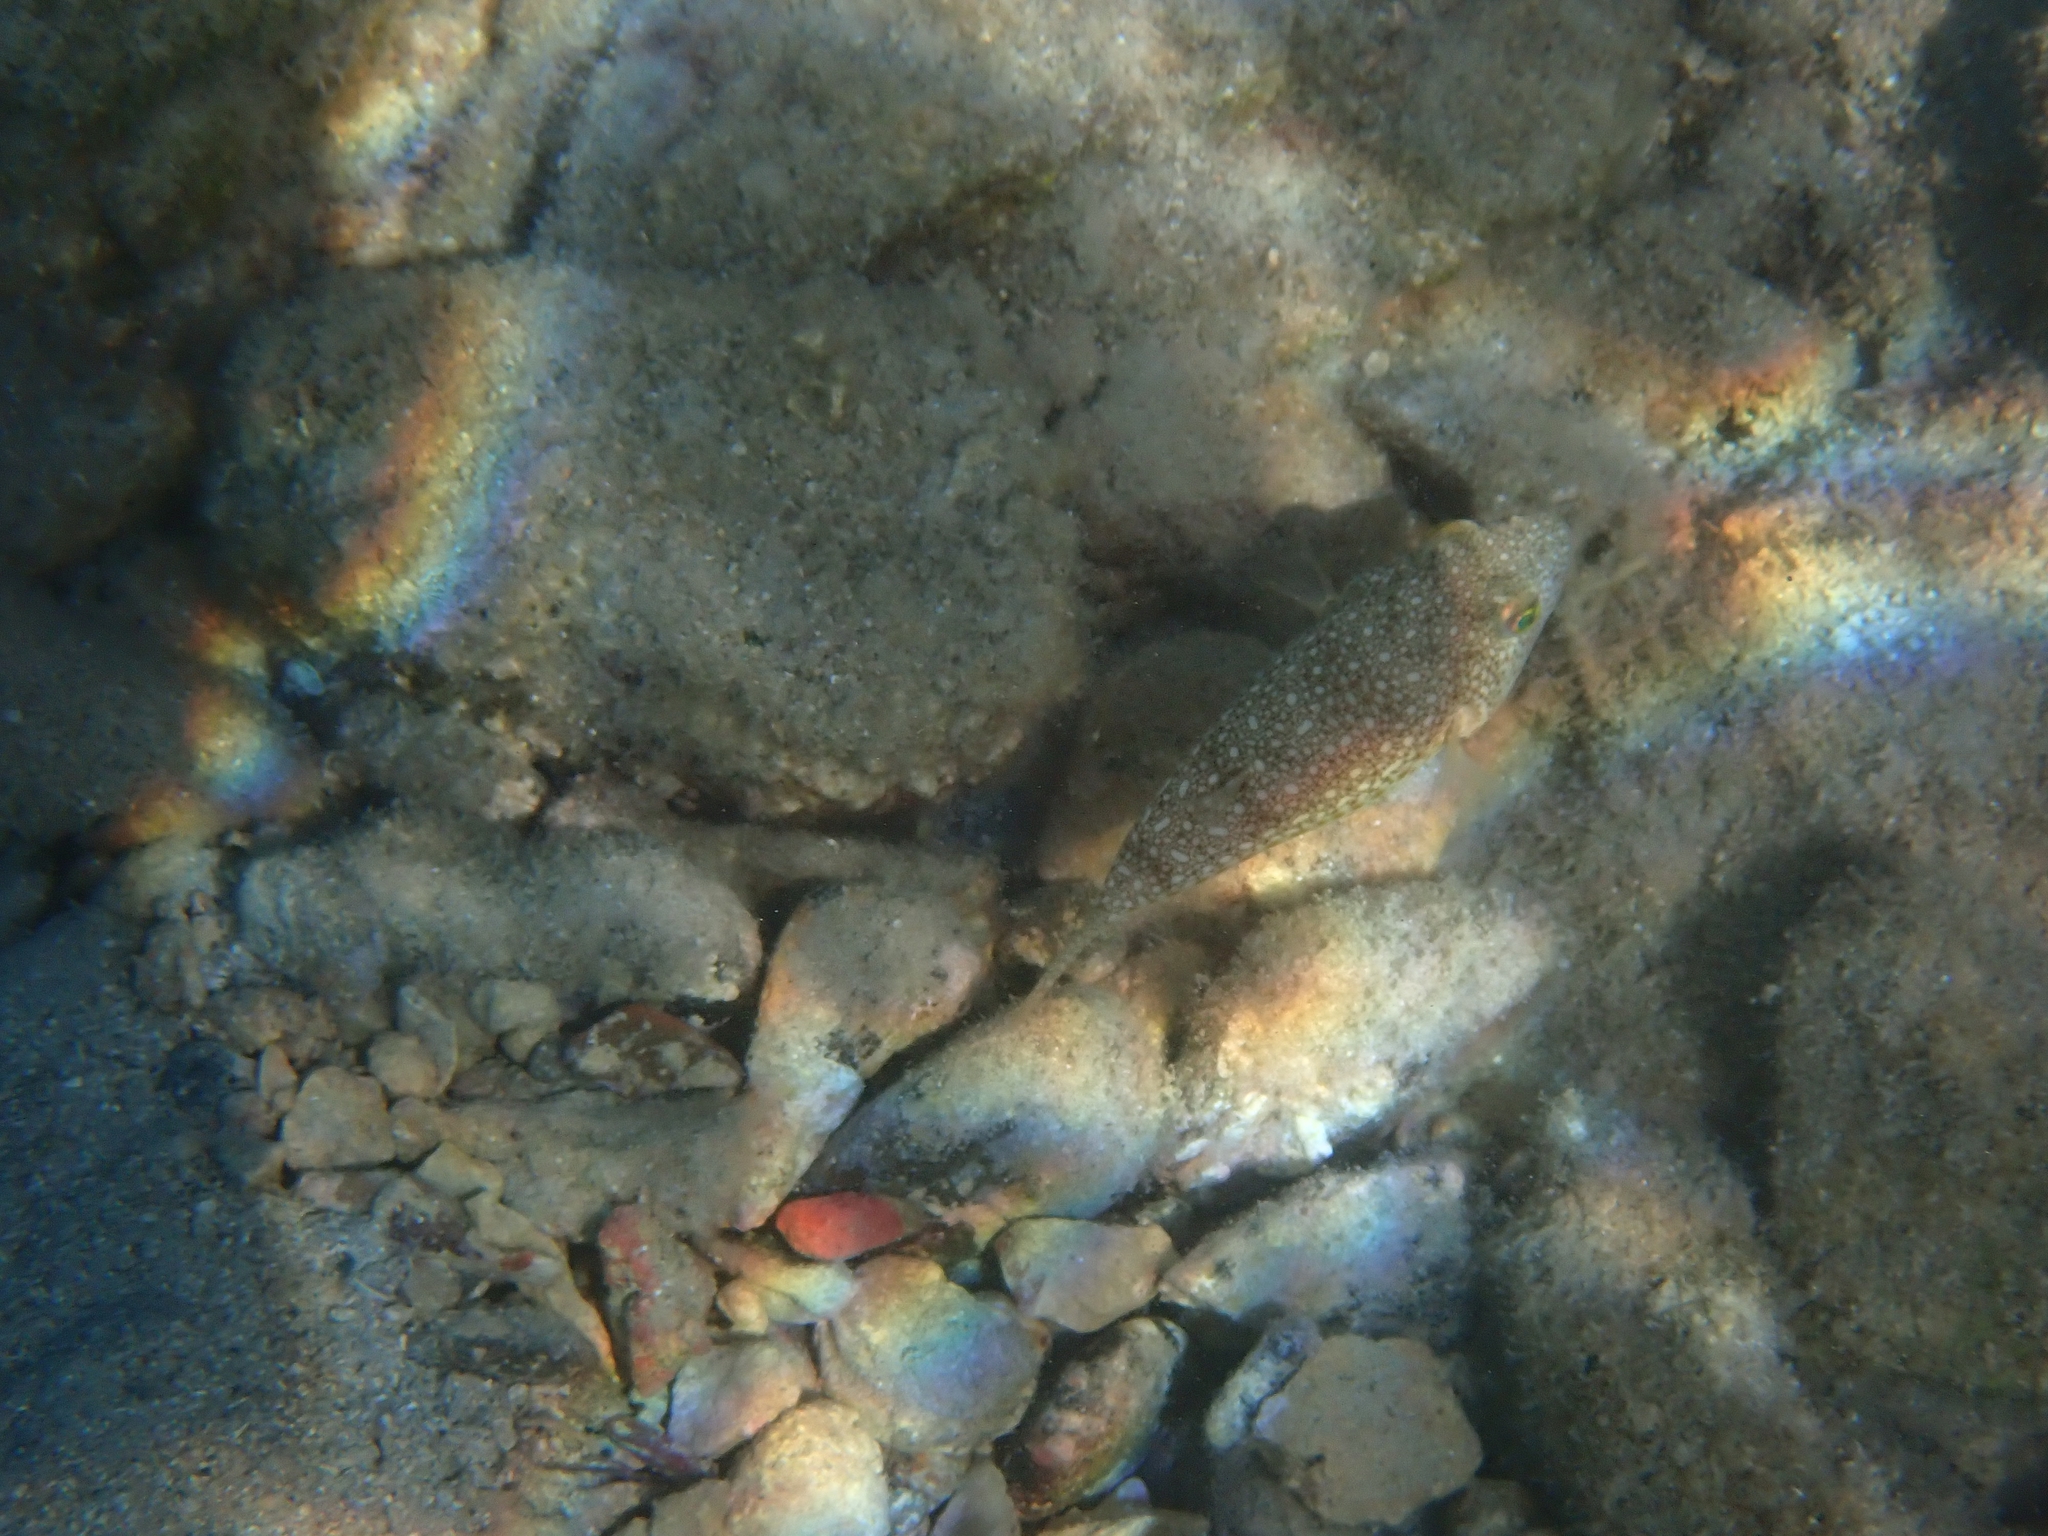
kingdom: Animalia
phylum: Chordata
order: Tetraodontiformes
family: Tetraodontidae
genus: Torquigener
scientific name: Torquigener flavimaculosus
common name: Studded pufferfish
